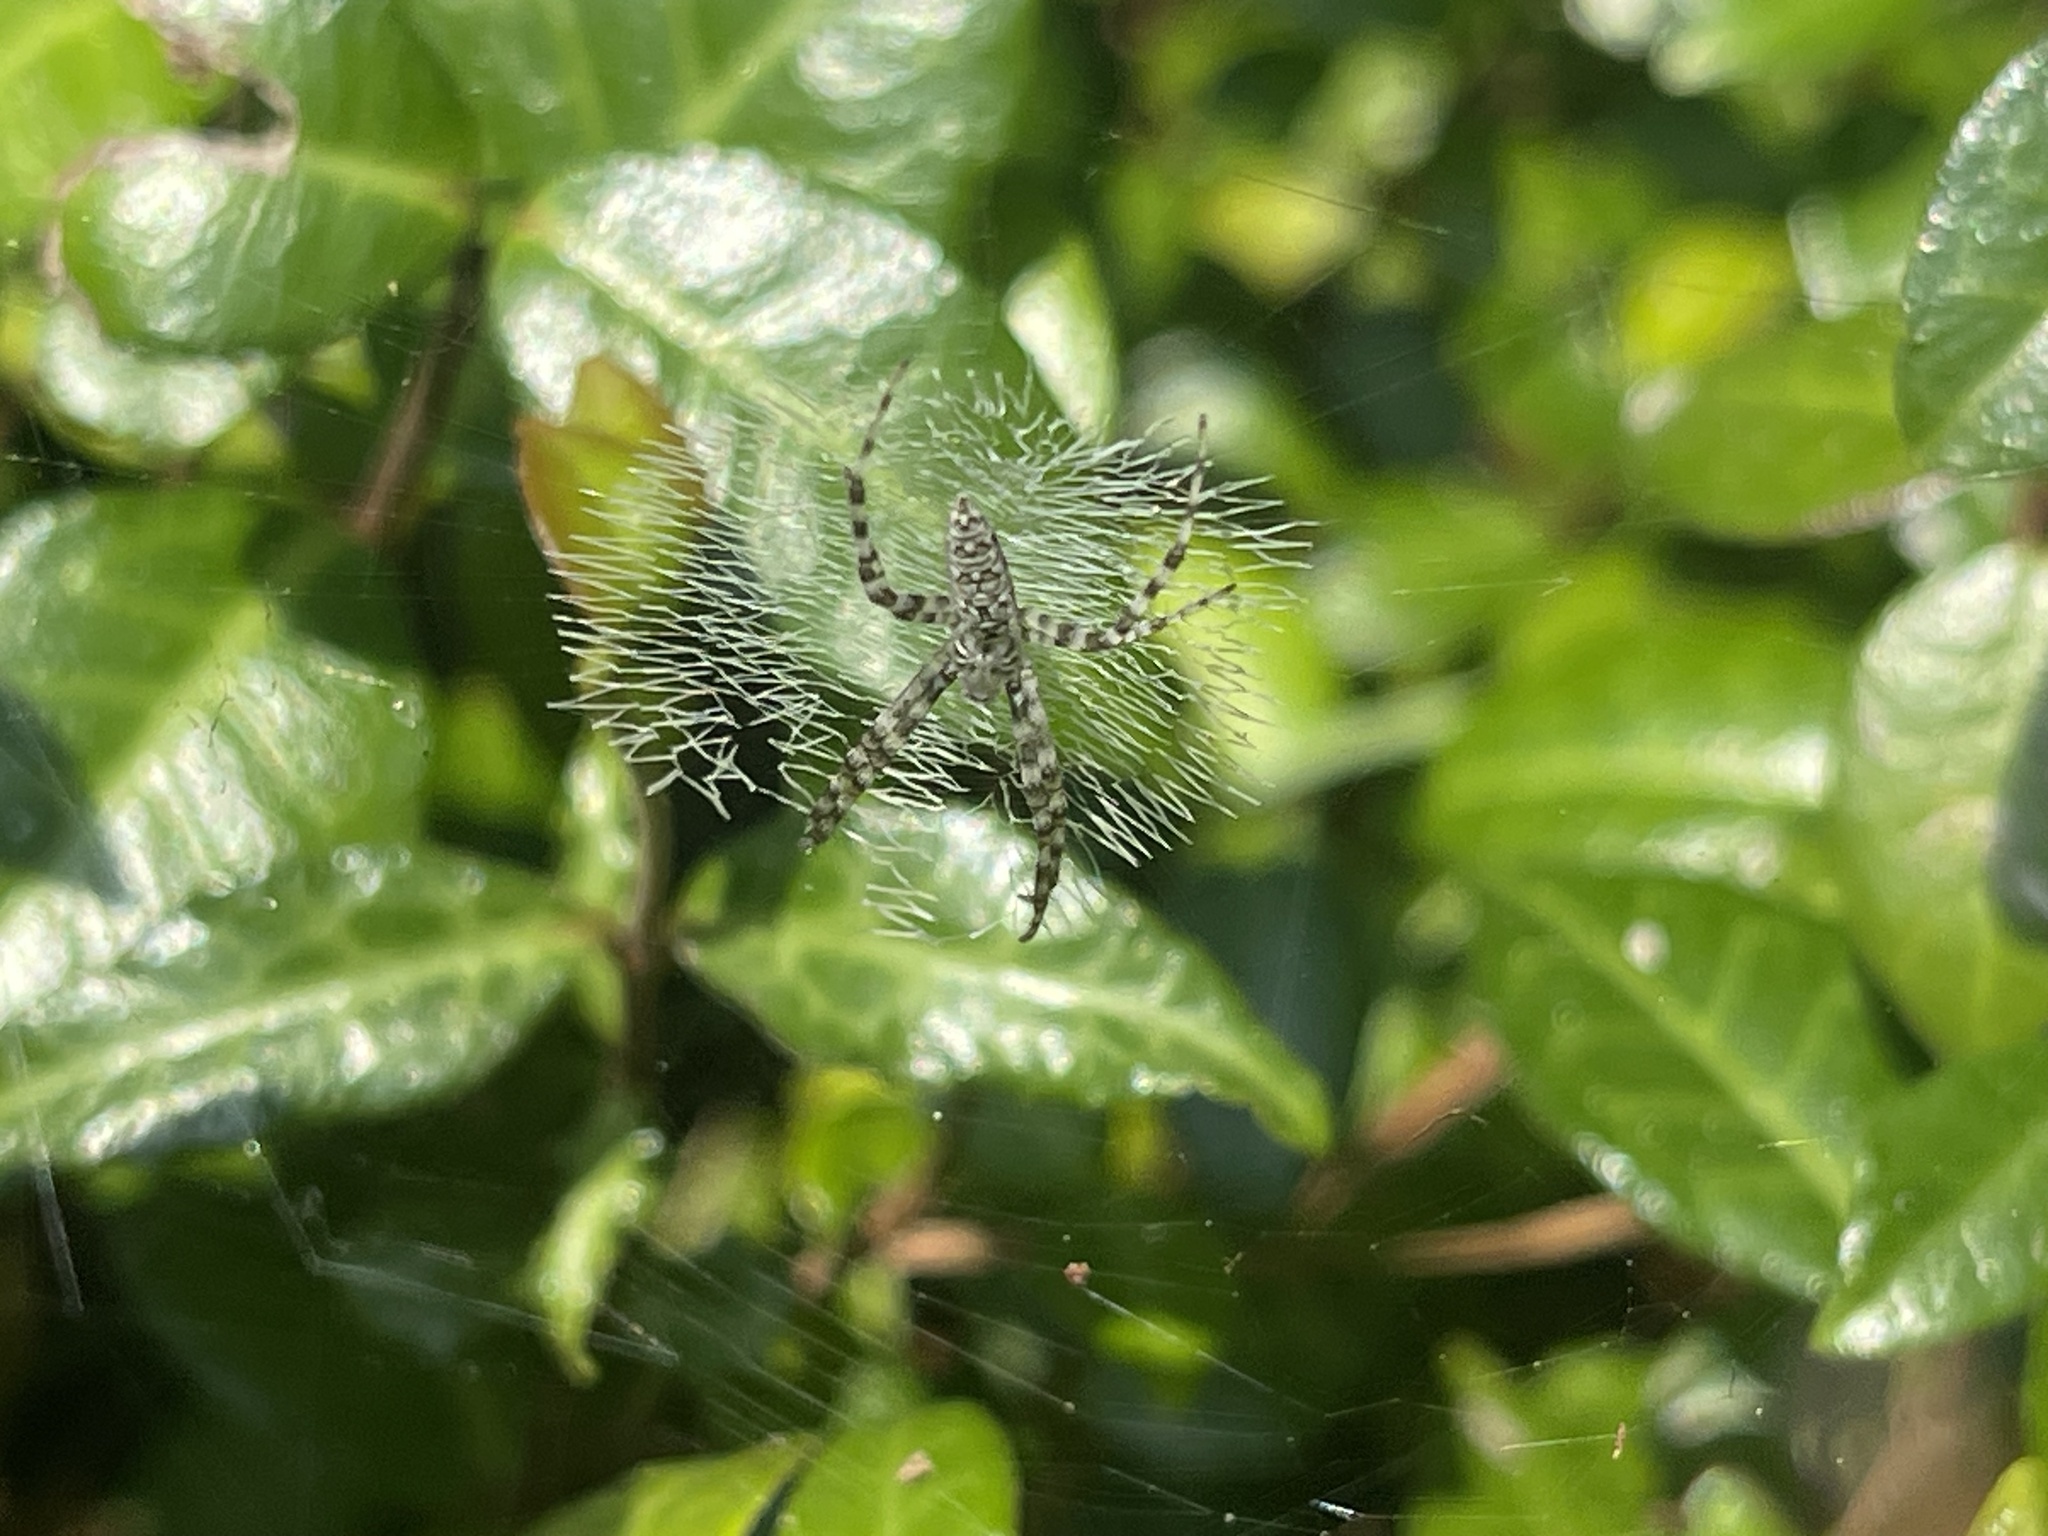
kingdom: Animalia
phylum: Arthropoda
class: Arachnida
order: Araneae
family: Araneidae
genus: Argiope
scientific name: Argiope aurantia
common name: Orb weavers
